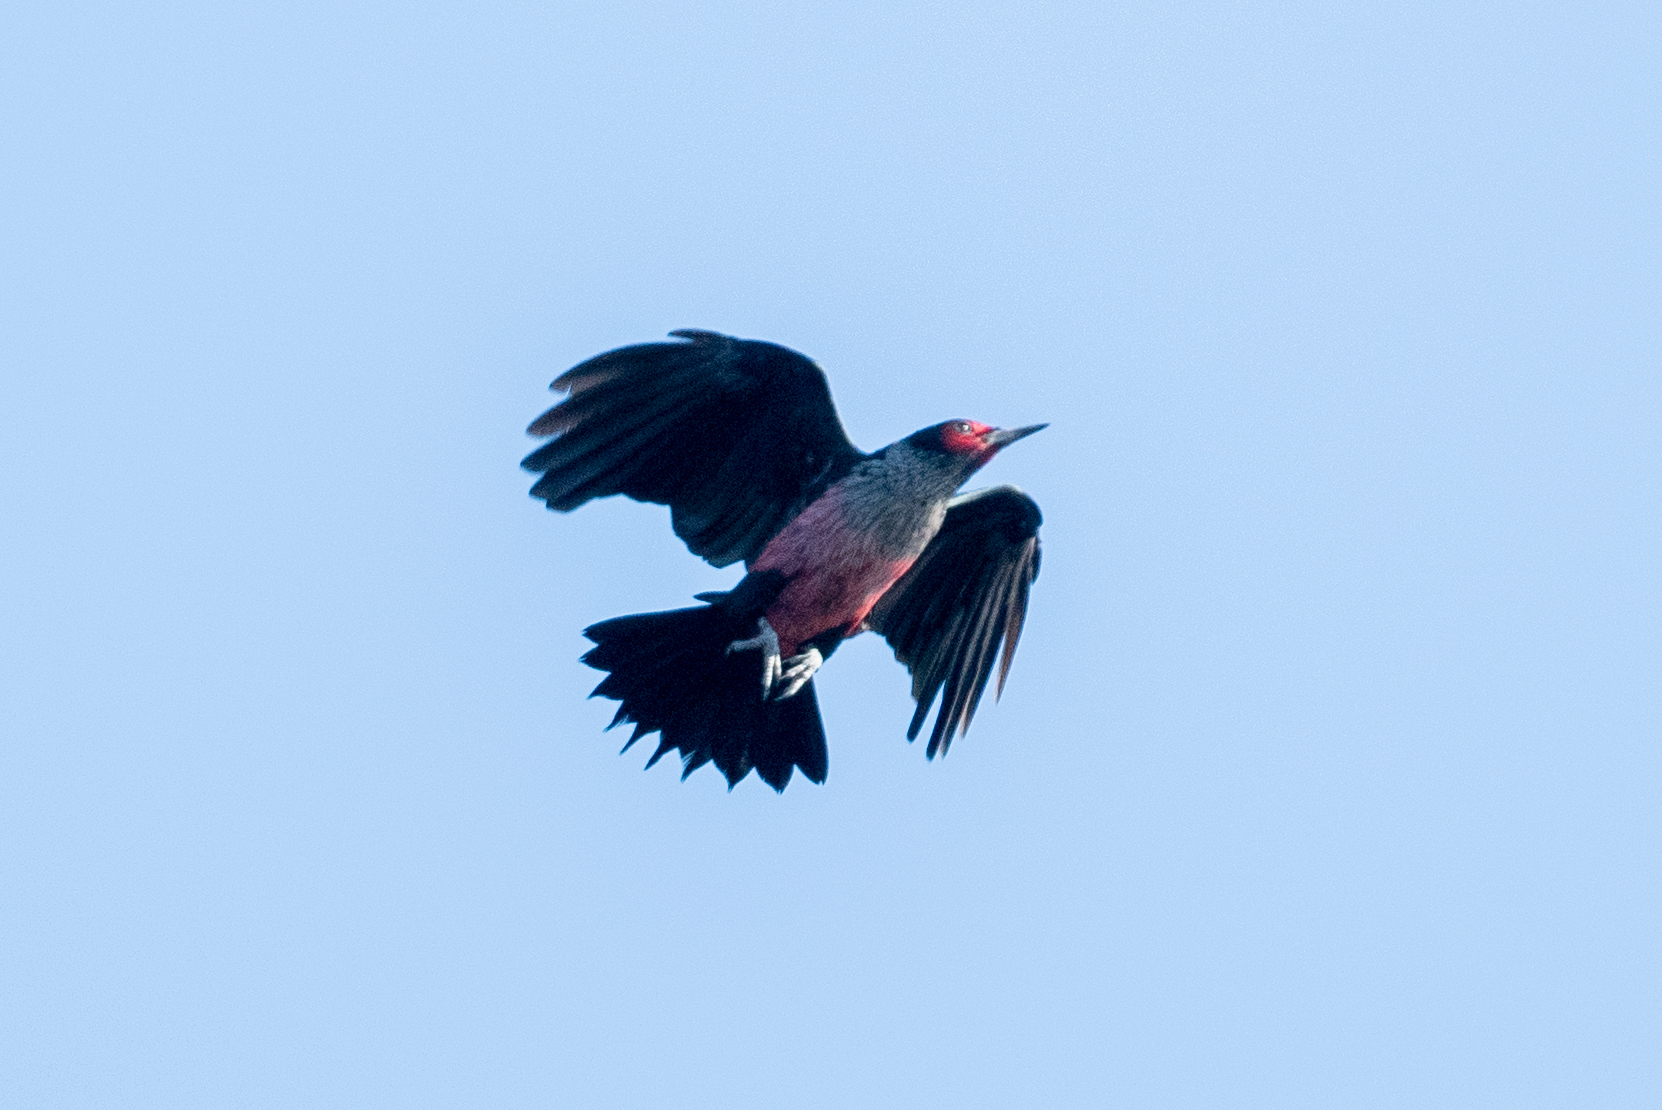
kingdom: Animalia
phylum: Chordata
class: Aves
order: Piciformes
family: Picidae
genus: Melanerpes
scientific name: Melanerpes lewis
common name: Lewis's woodpecker
